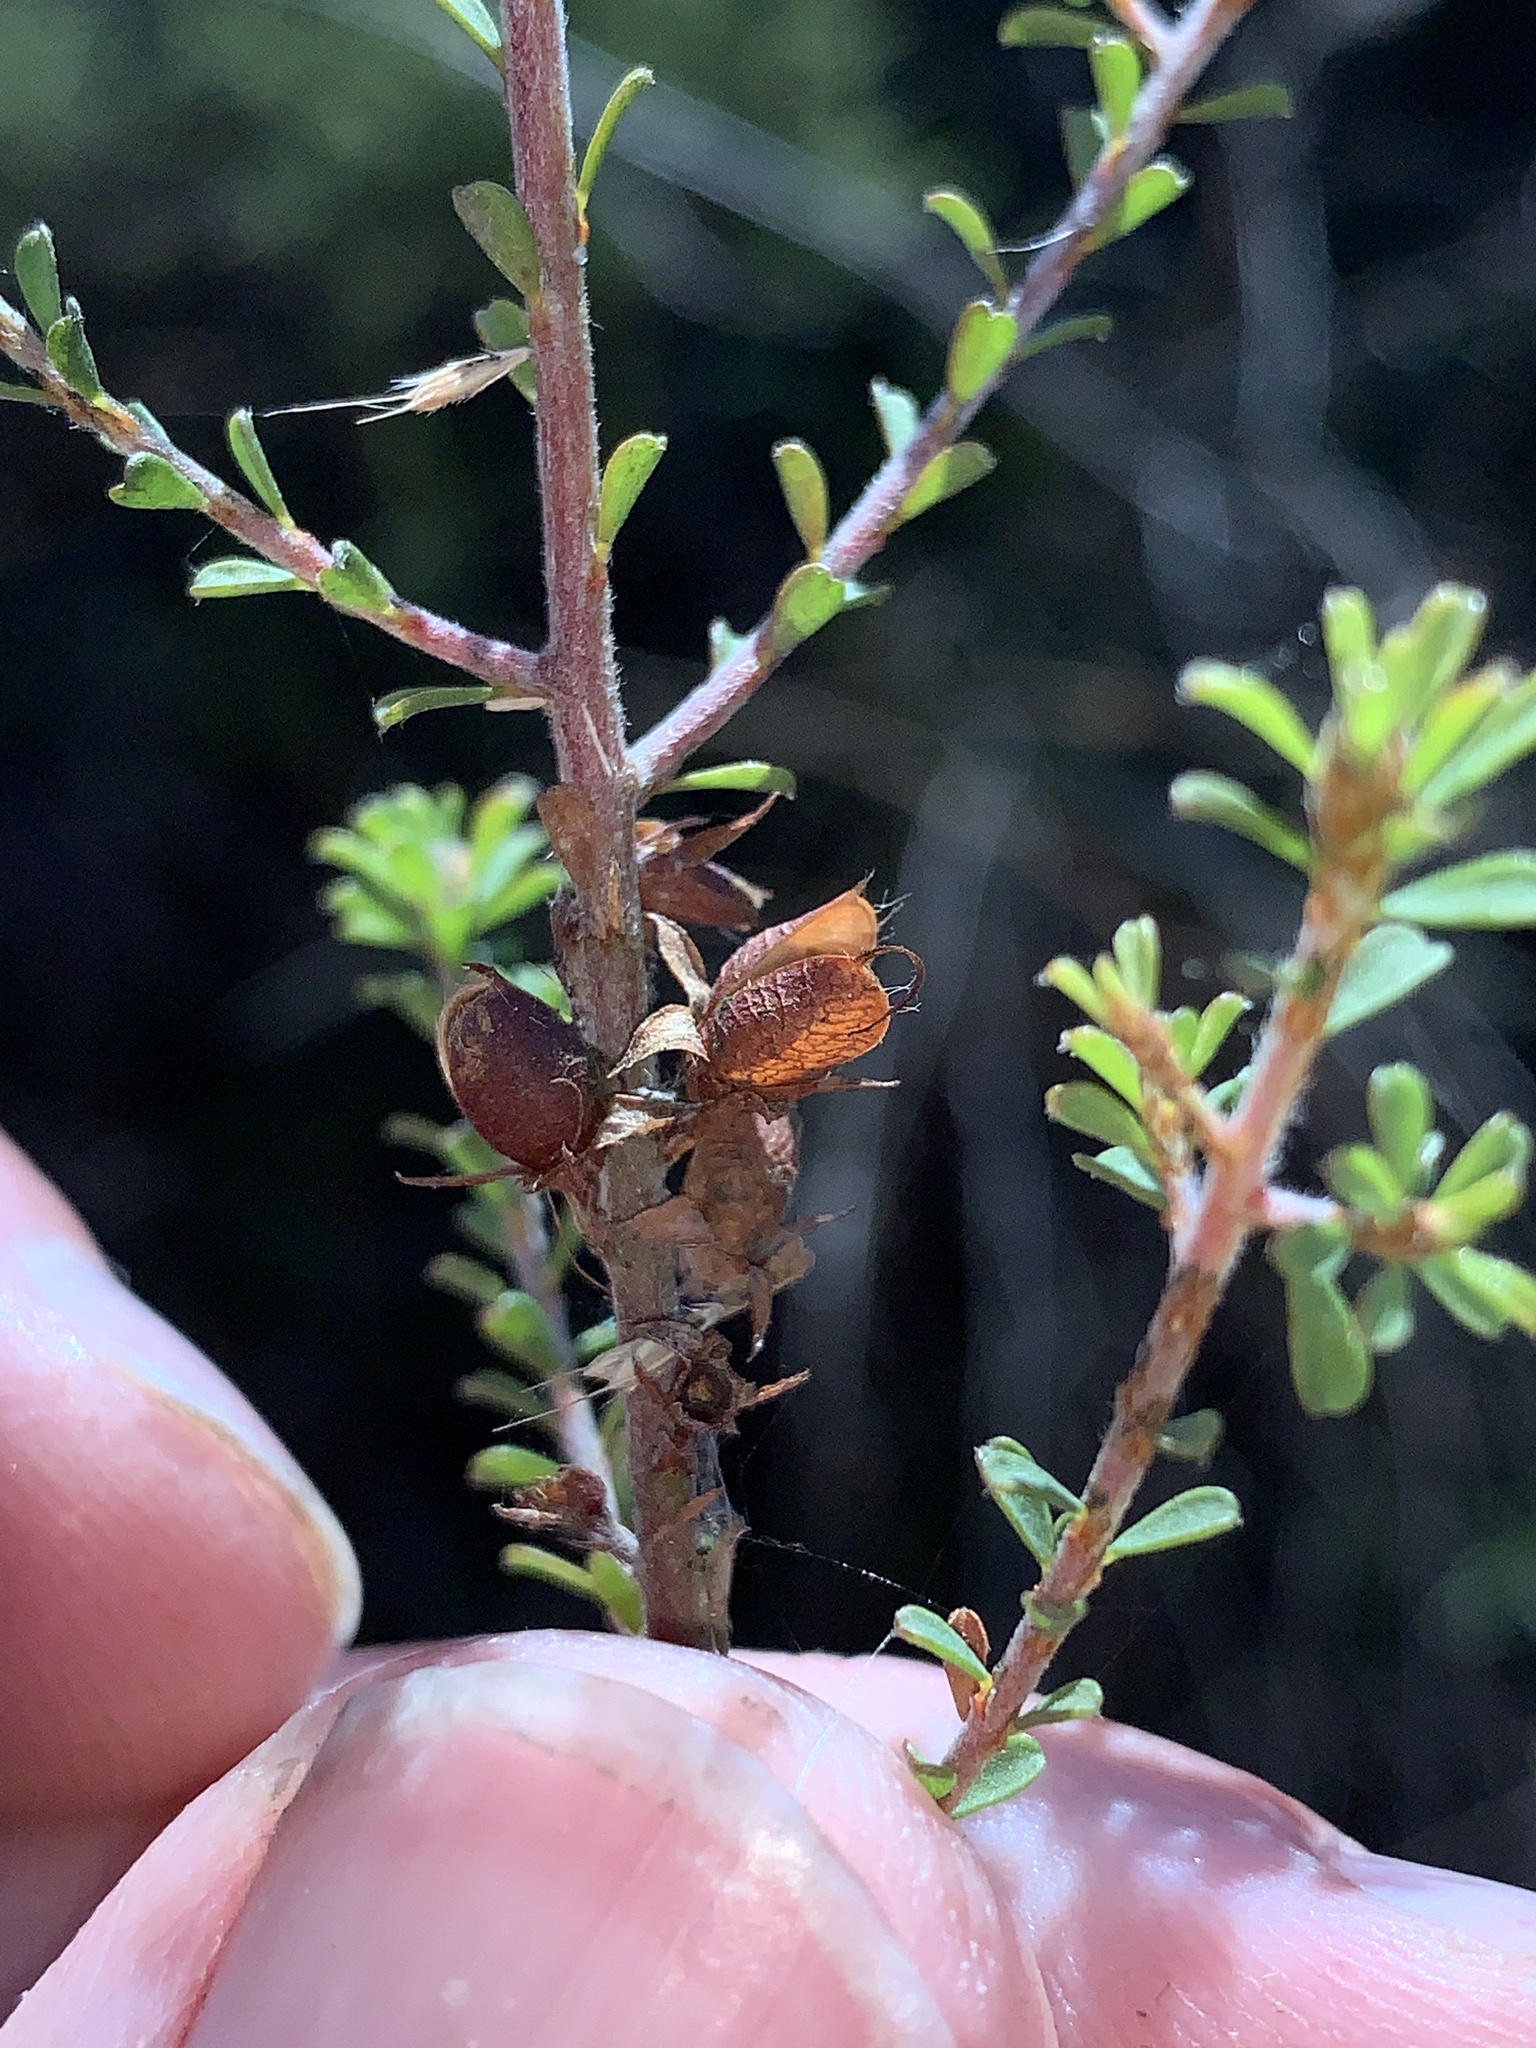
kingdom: Plantae
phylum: Tracheophyta
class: Magnoliopsida
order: Fabales
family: Fabaceae
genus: Pultenaea
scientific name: Pultenaea parviflora
